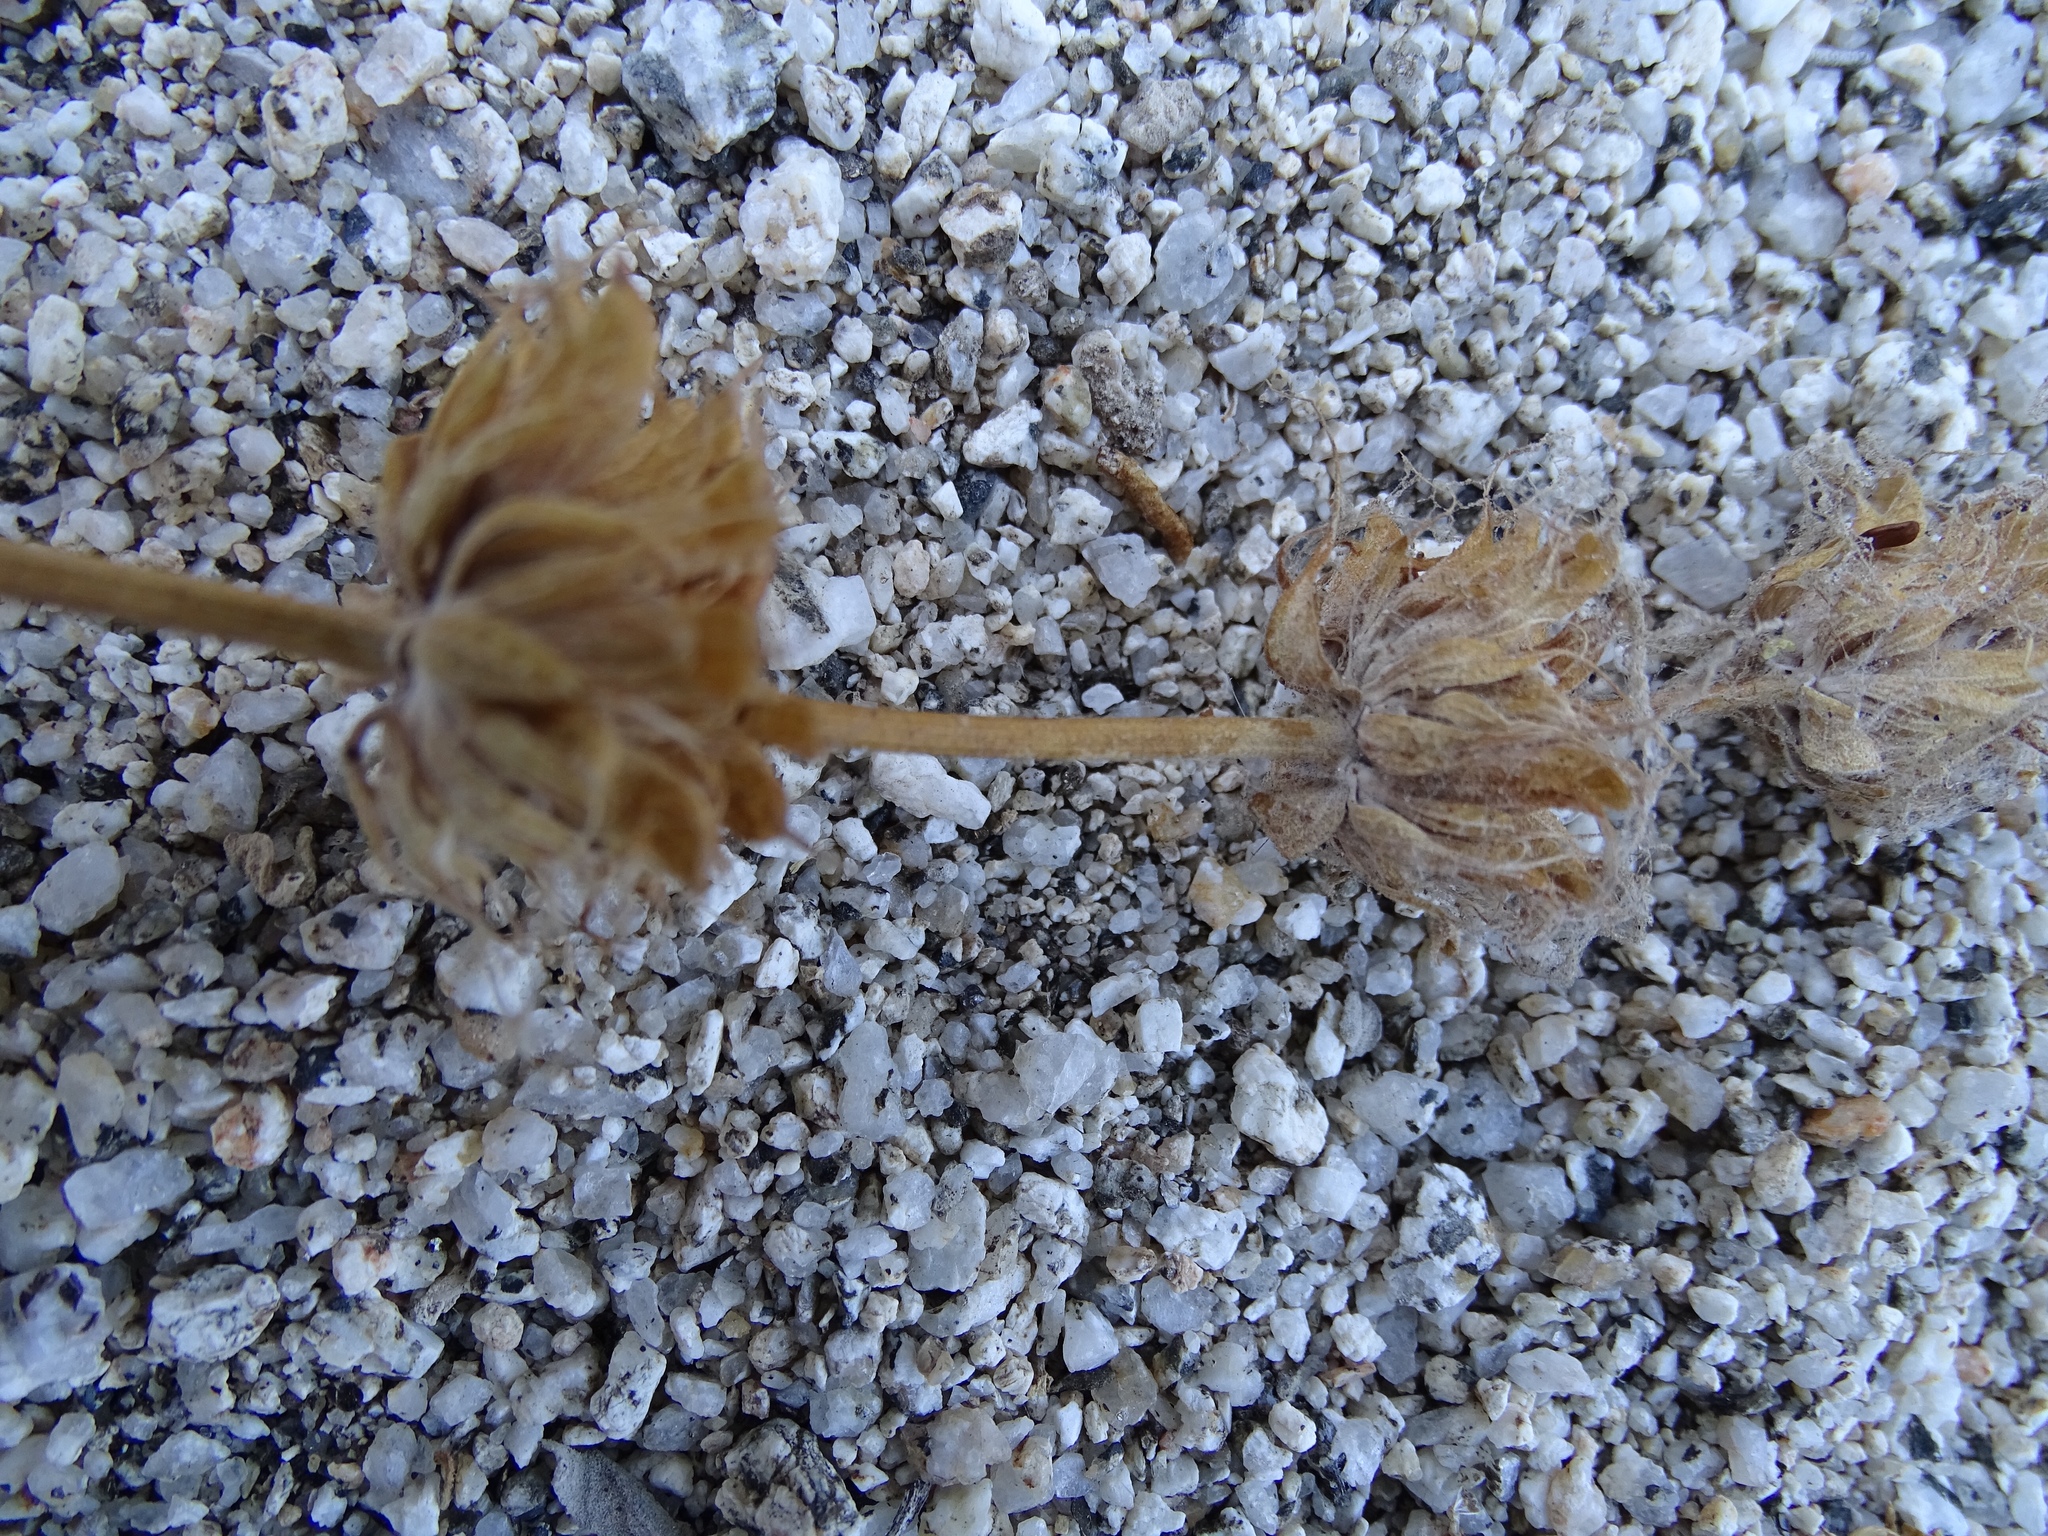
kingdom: Plantae
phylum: Tracheophyta
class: Magnoliopsida
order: Lamiales
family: Lamiaceae
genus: Salvia
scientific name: Salvia vaseyi
